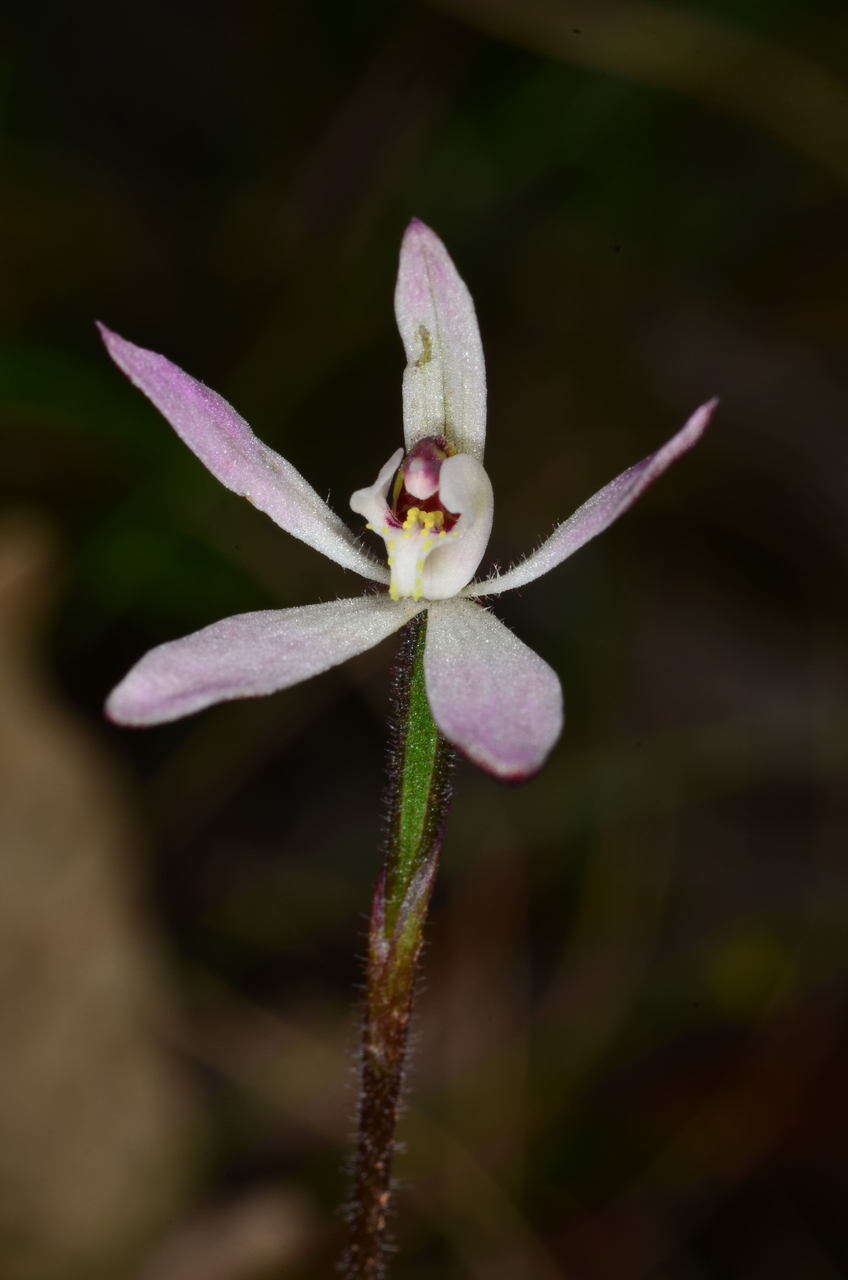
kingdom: Plantae
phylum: Tracheophyta
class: Liliopsida
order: Asparagales
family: Orchidaceae
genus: Caladenia
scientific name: Caladenia fuscata
